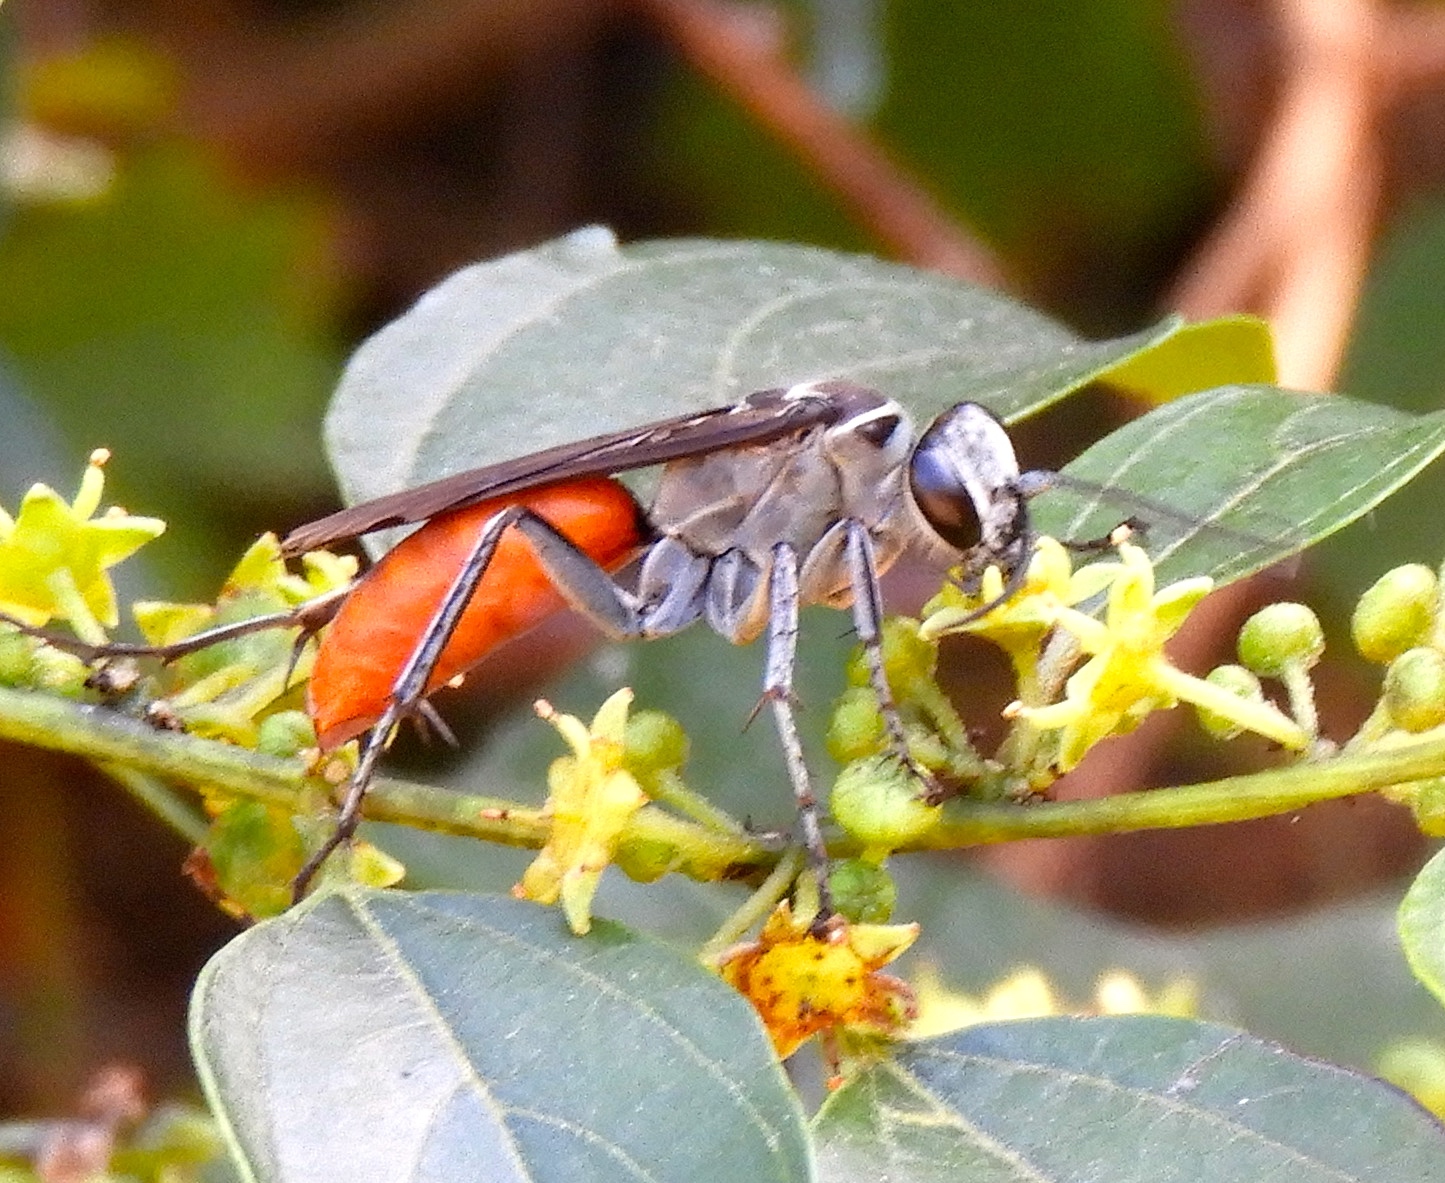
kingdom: Animalia
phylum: Arthropoda
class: Insecta
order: Hymenoptera
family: Pompilidae
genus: Xerochares
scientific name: Xerochares expulsus
